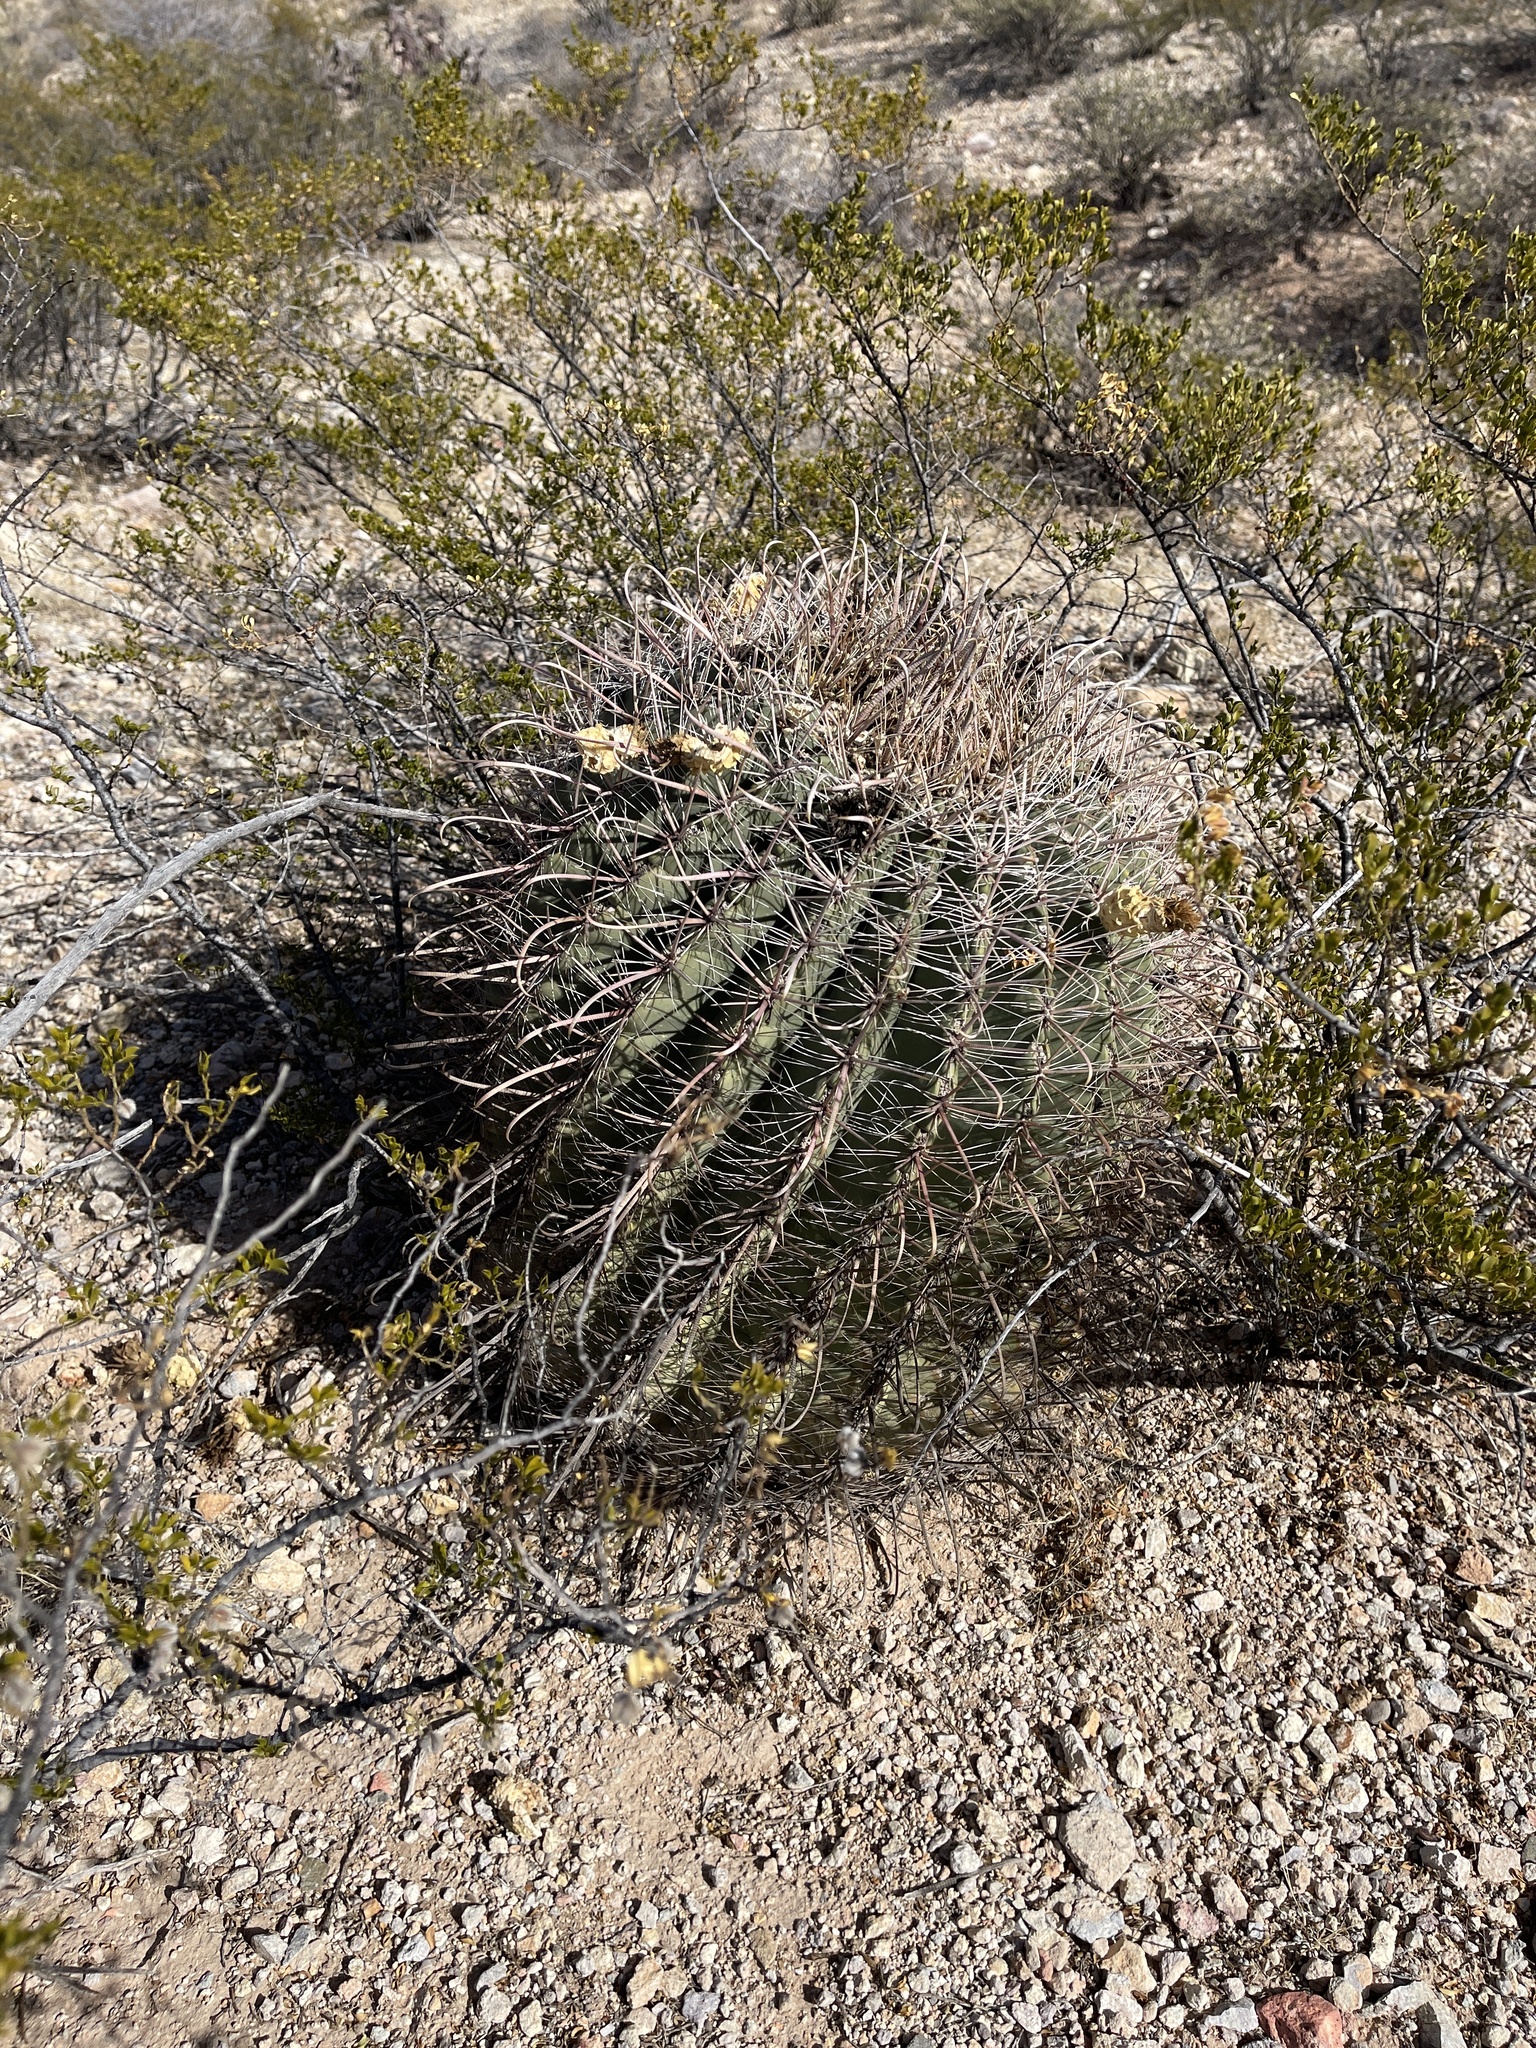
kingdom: Plantae
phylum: Tracheophyta
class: Magnoliopsida
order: Caryophyllales
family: Cactaceae
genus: Ferocactus
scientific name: Ferocactus wislizeni
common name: Candy barrel cactus
